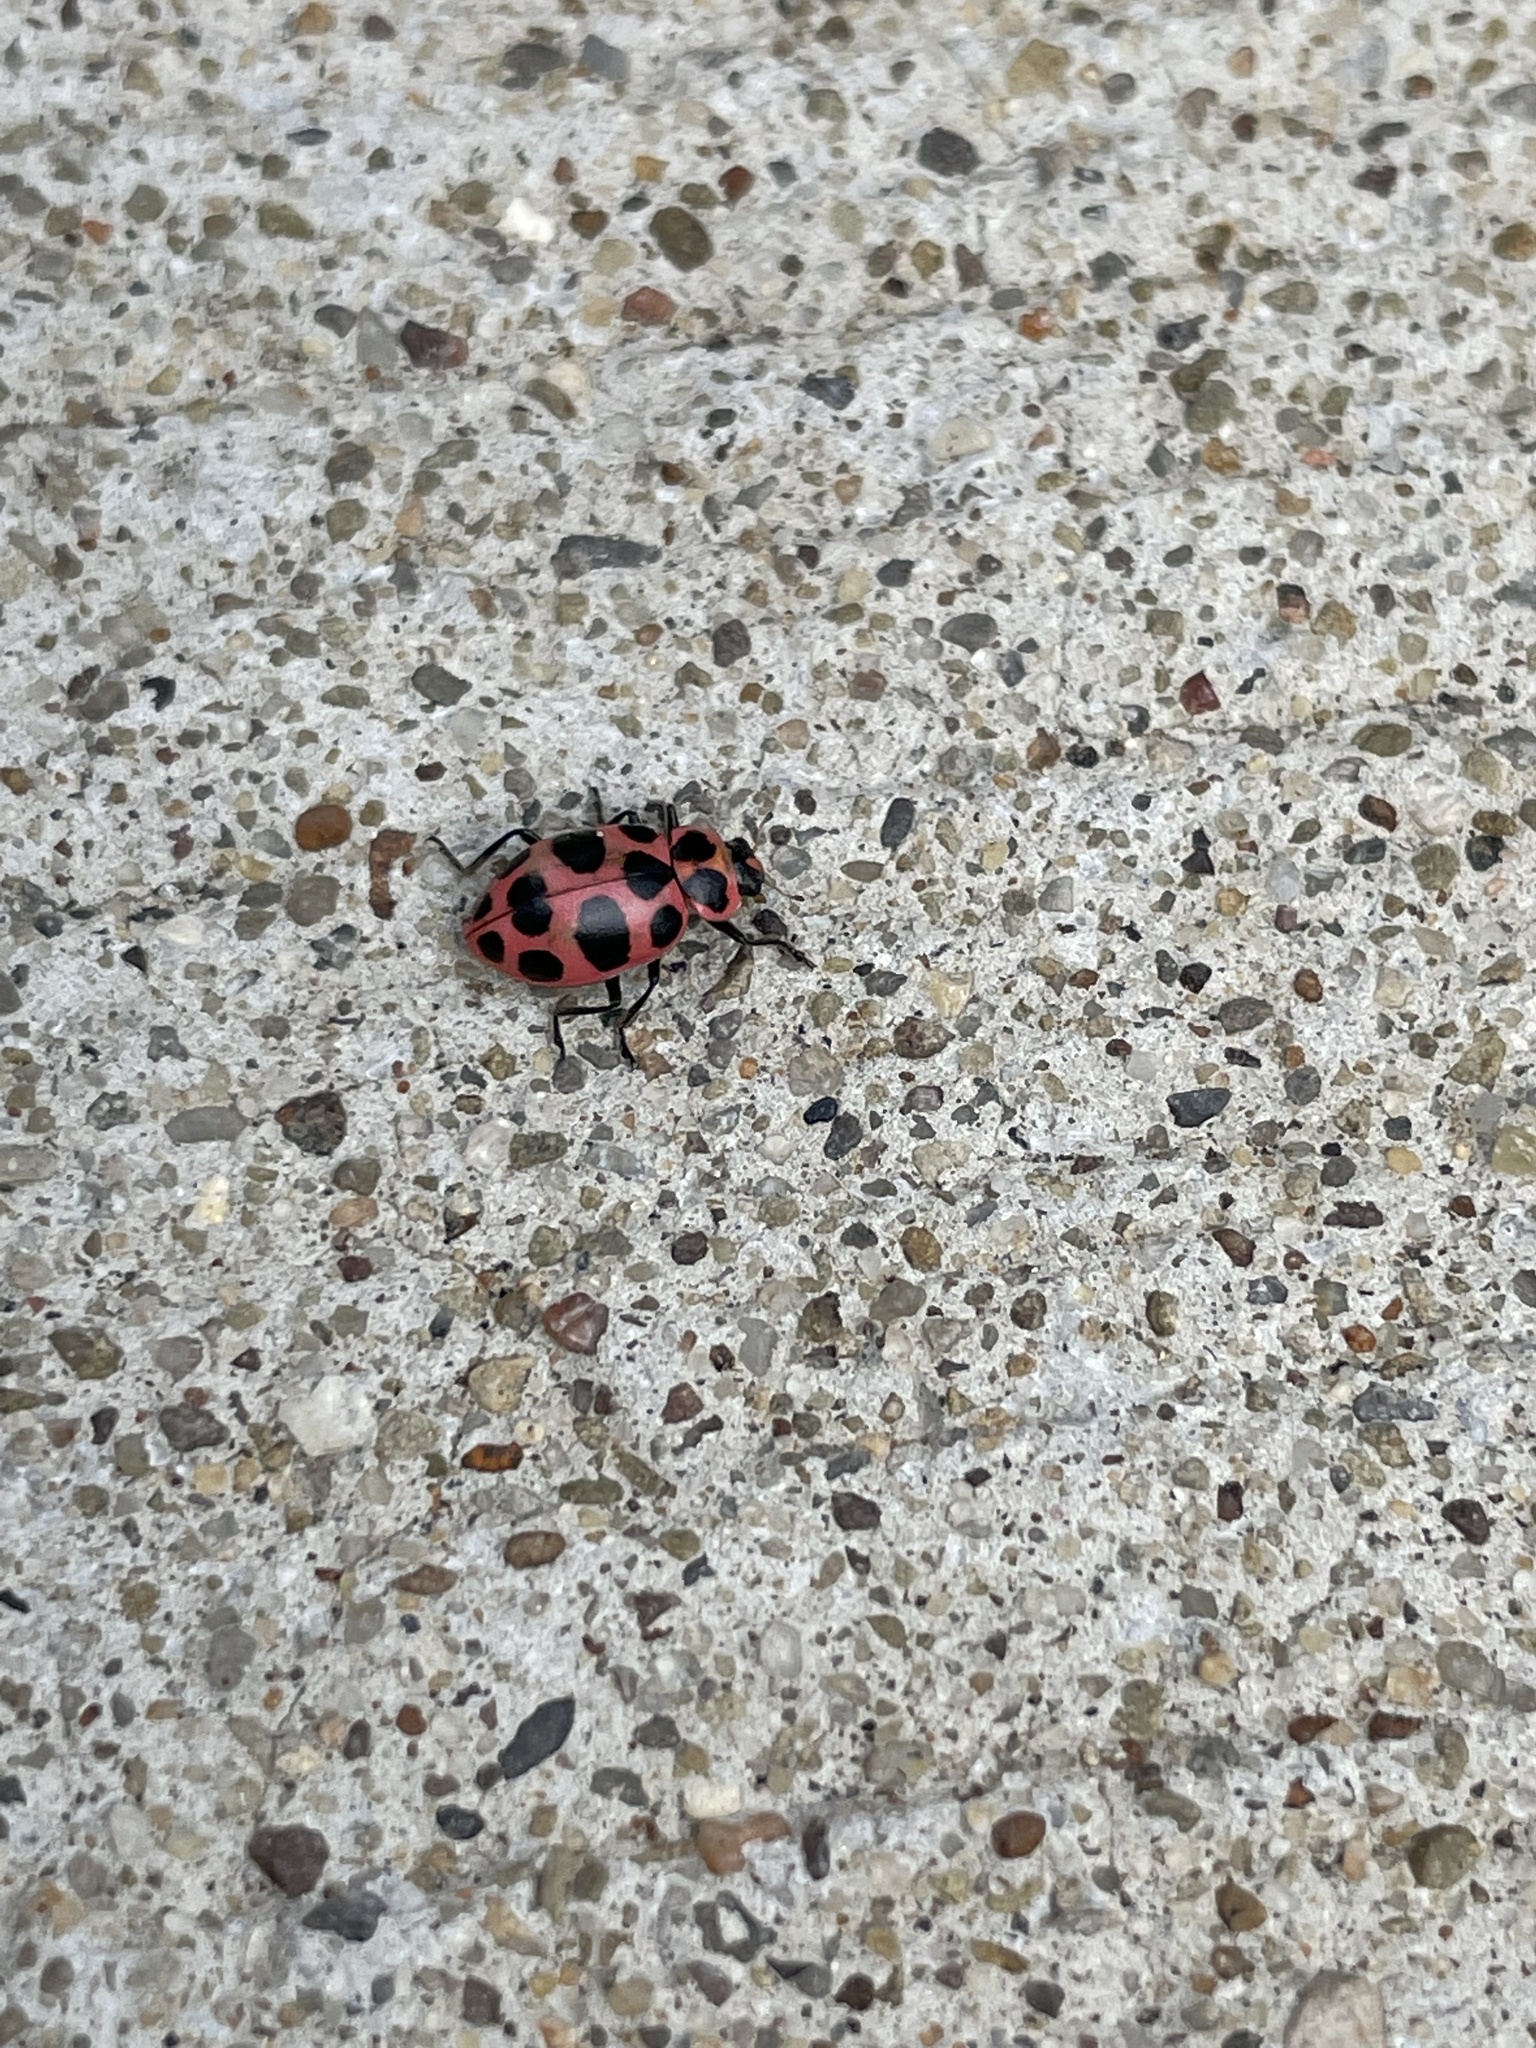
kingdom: Animalia
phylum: Arthropoda
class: Insecta
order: Coleoptera
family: Coccinellidae
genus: Coleomegilla
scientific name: Coleomegilla maculata
